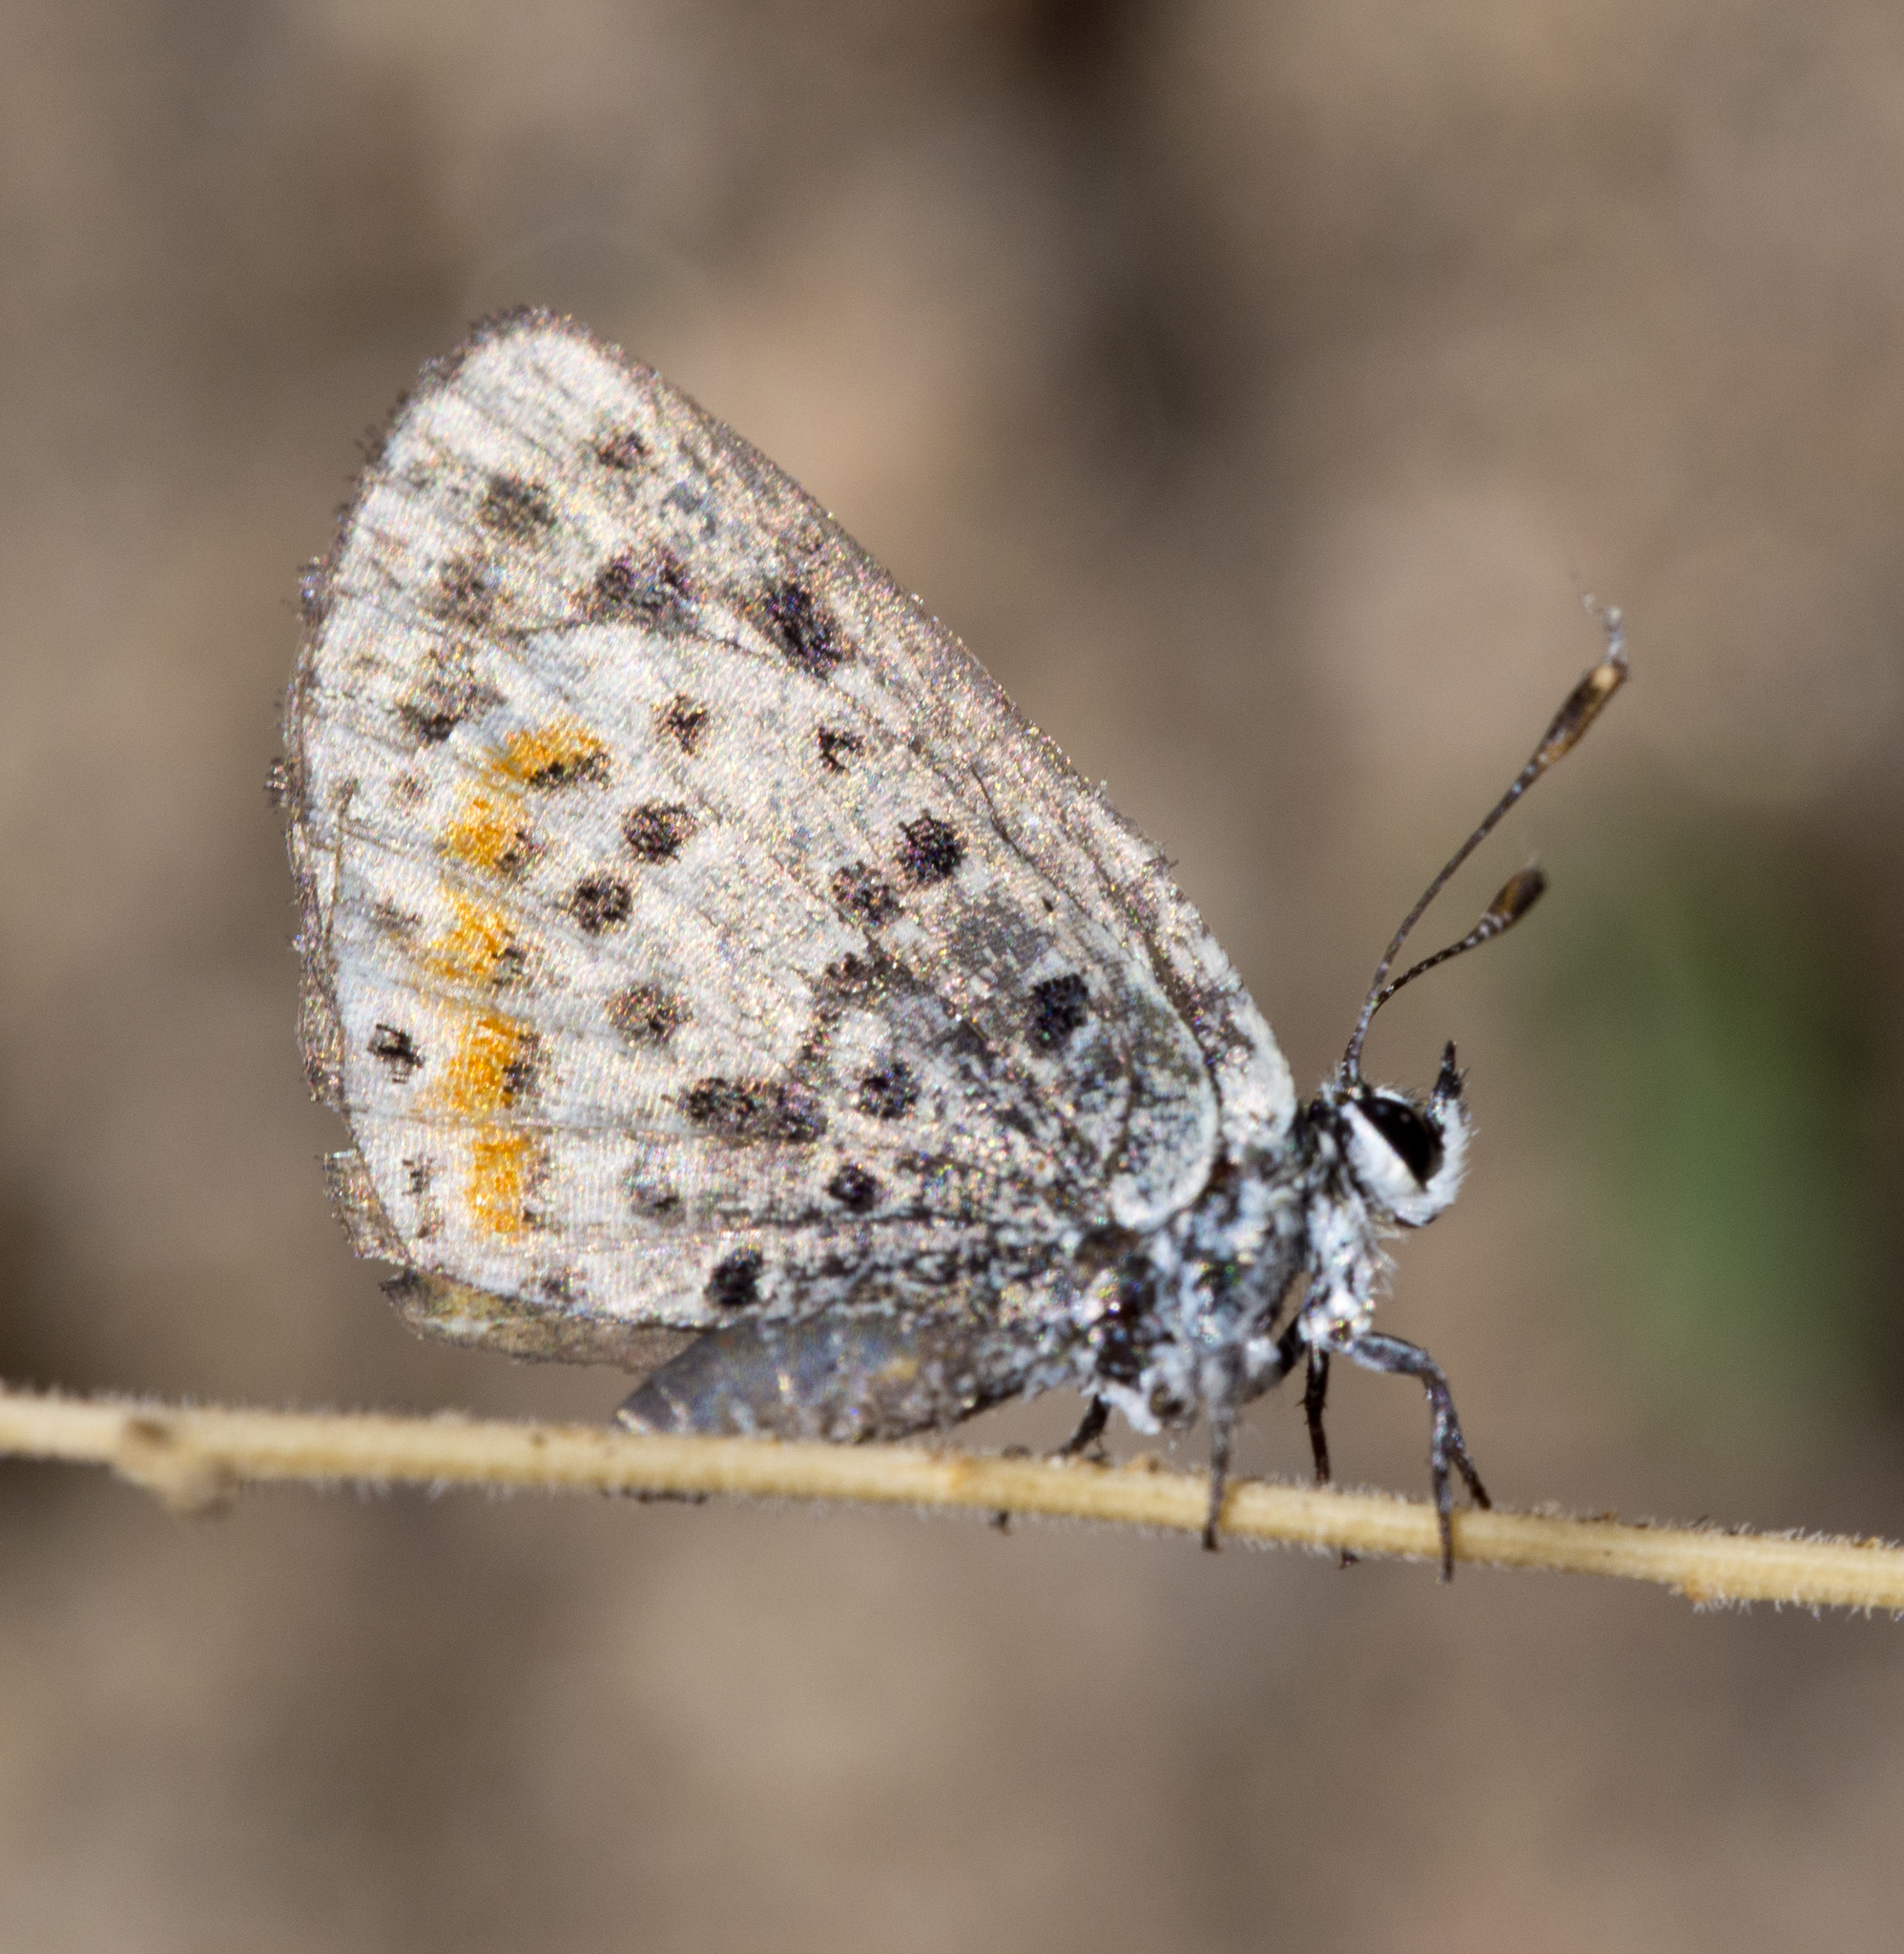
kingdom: Animalia
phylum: Arthropoda
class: Insecta
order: Lepidoptera
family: Lycaenidae
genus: Euphilotes
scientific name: Euphilotes enoptes
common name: Dotted blue
